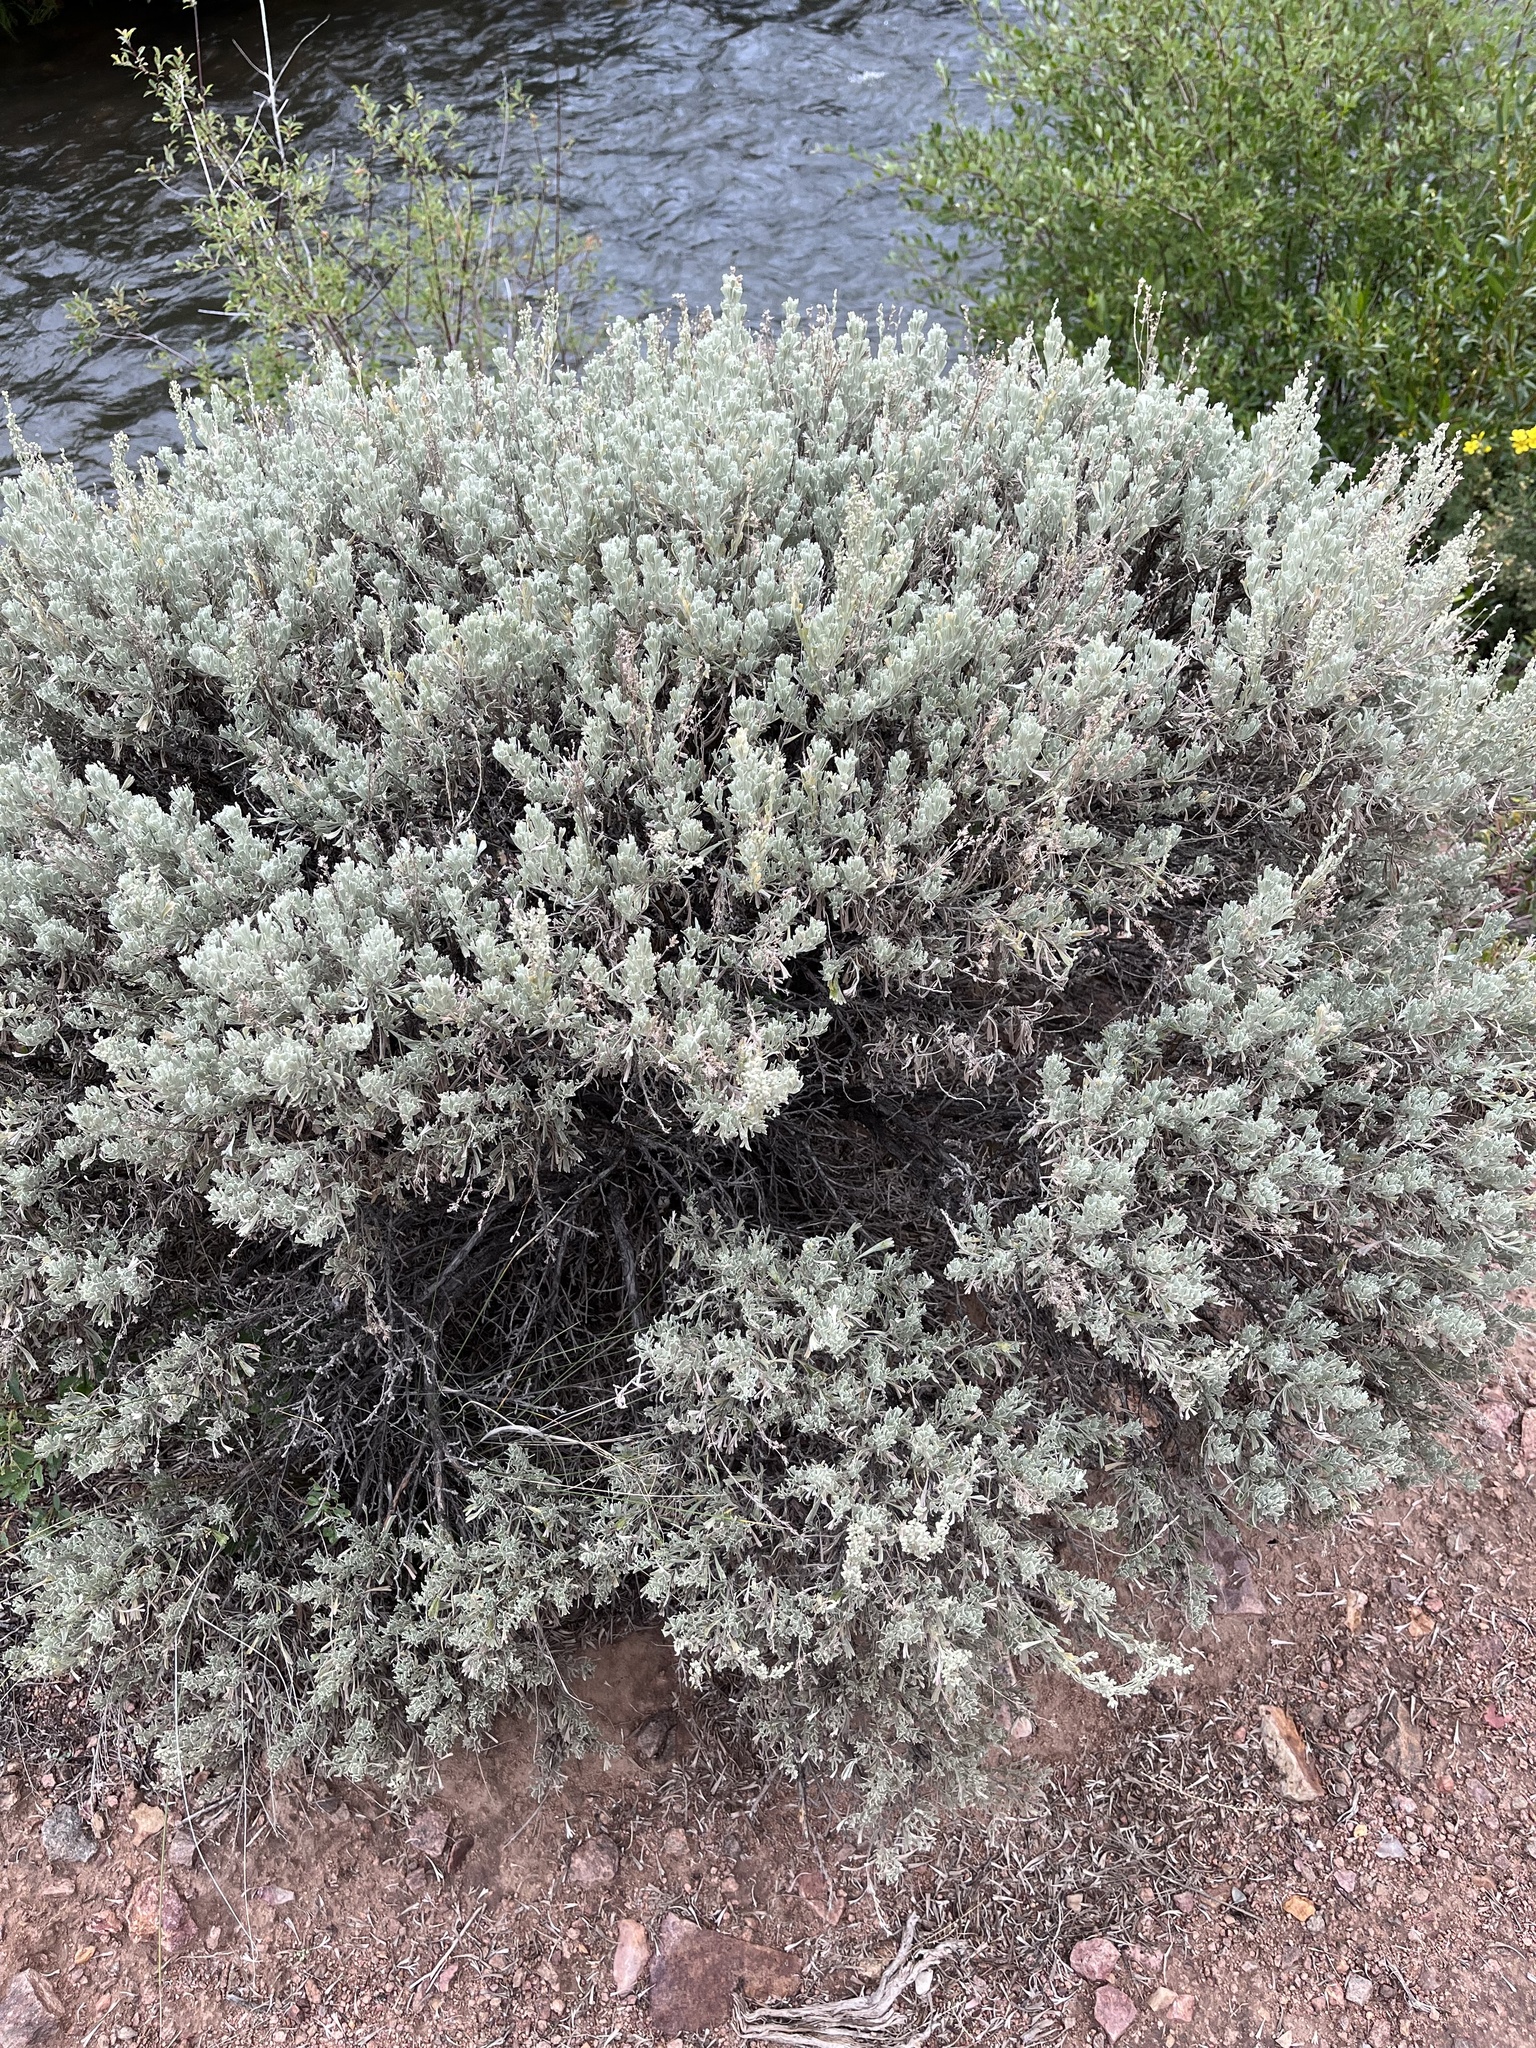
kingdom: Plantae
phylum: Tracheophyta
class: Magnoliopsida
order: Asterales
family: Asteraceae
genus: Artemisia
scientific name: Artemisia tridentata
